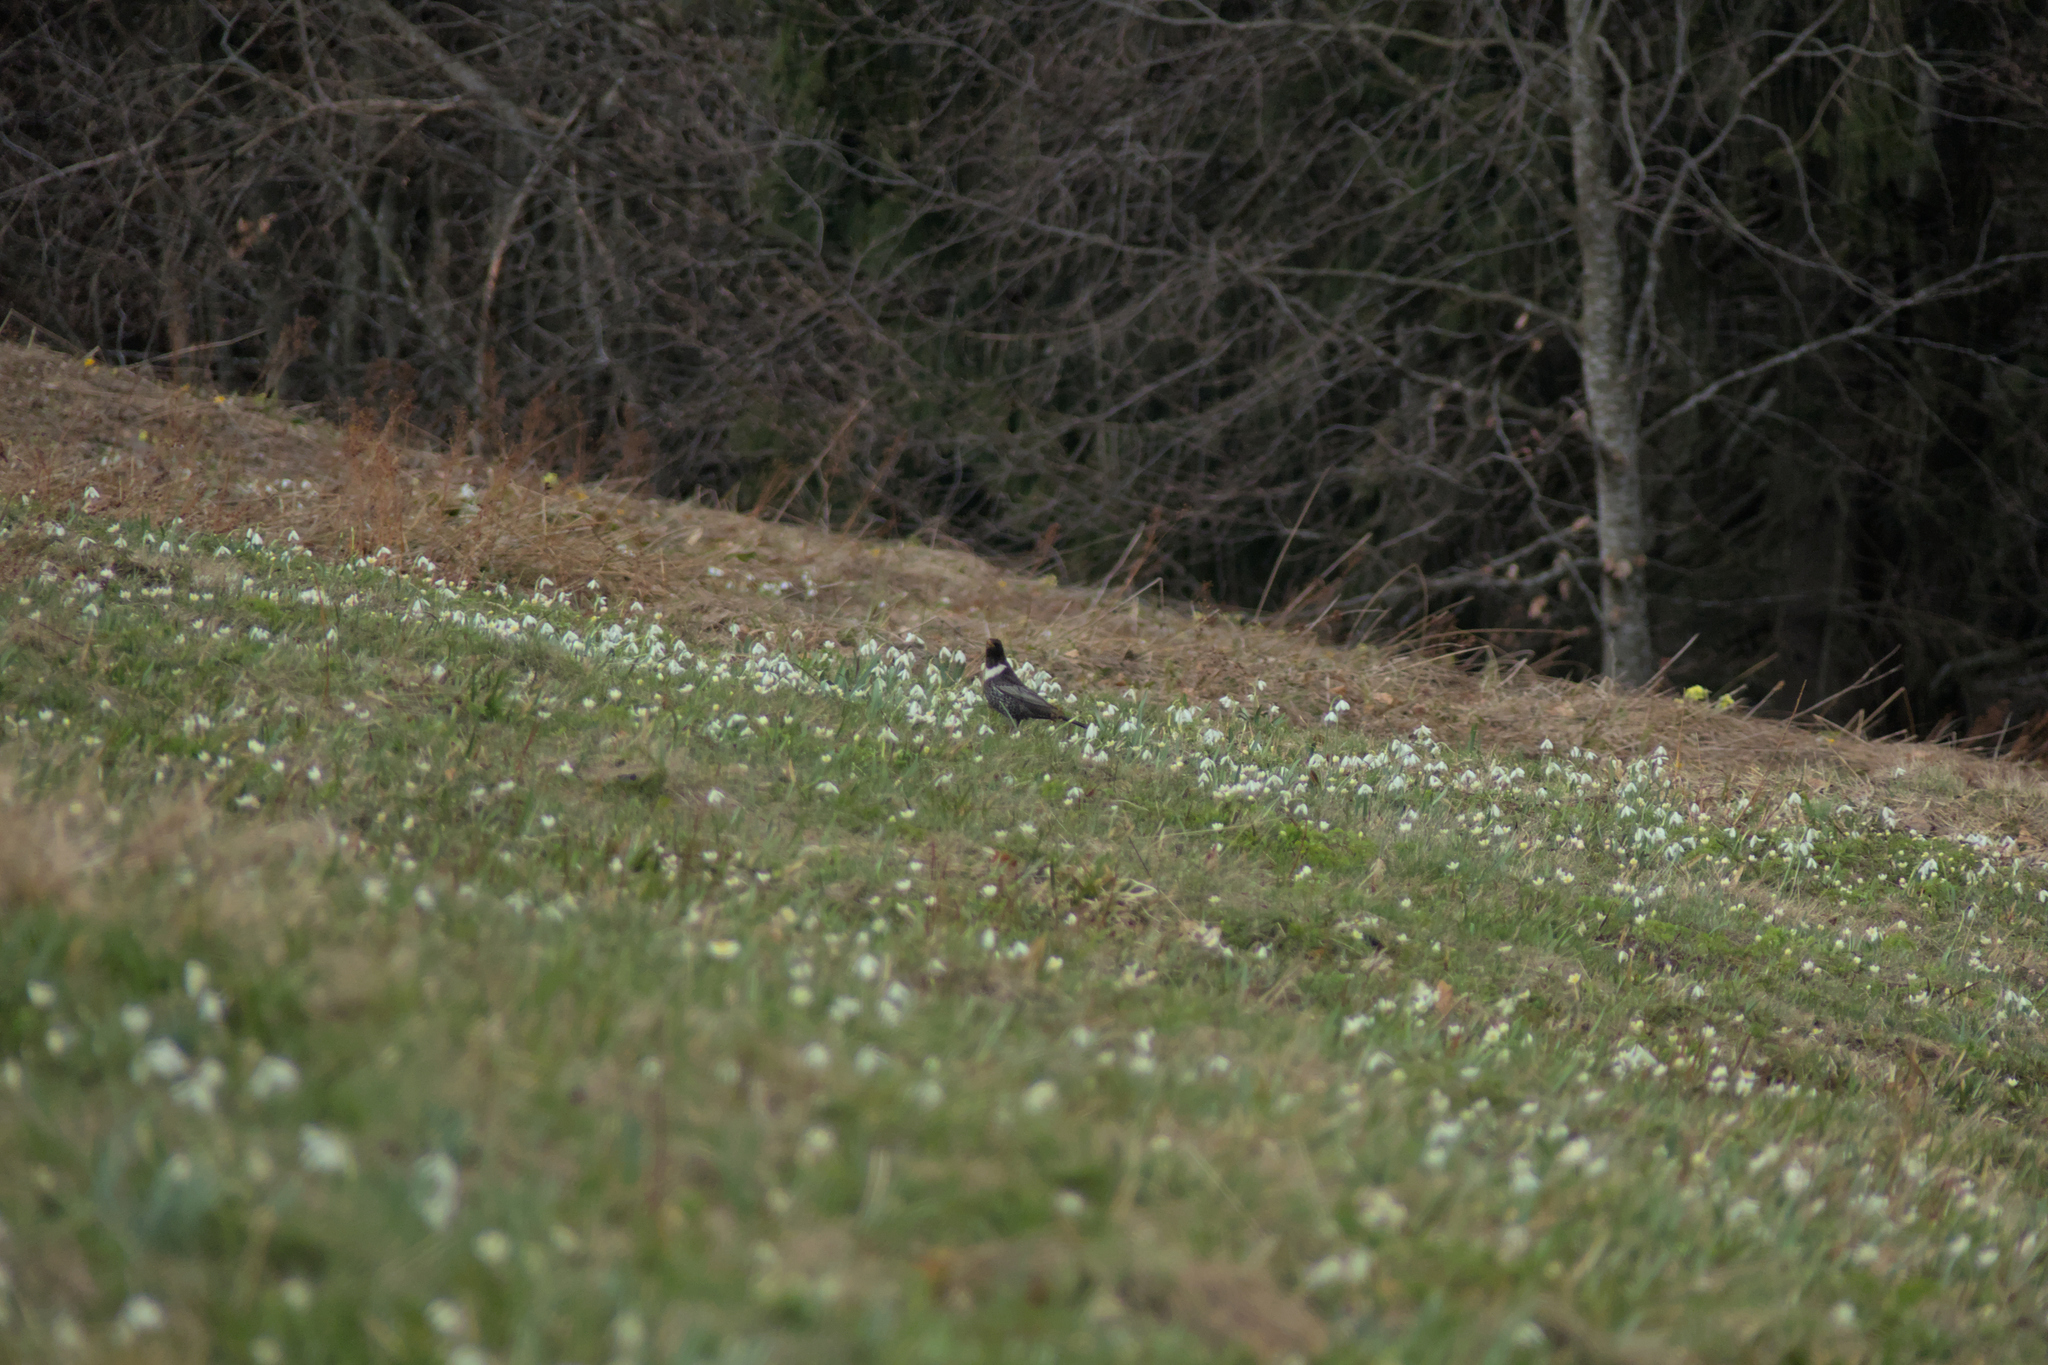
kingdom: Animalia
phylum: Chordata
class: Aves
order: Passeriformes
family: Turdidae
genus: Turdus
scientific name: Turdus torquatus
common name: Ring ouzel
